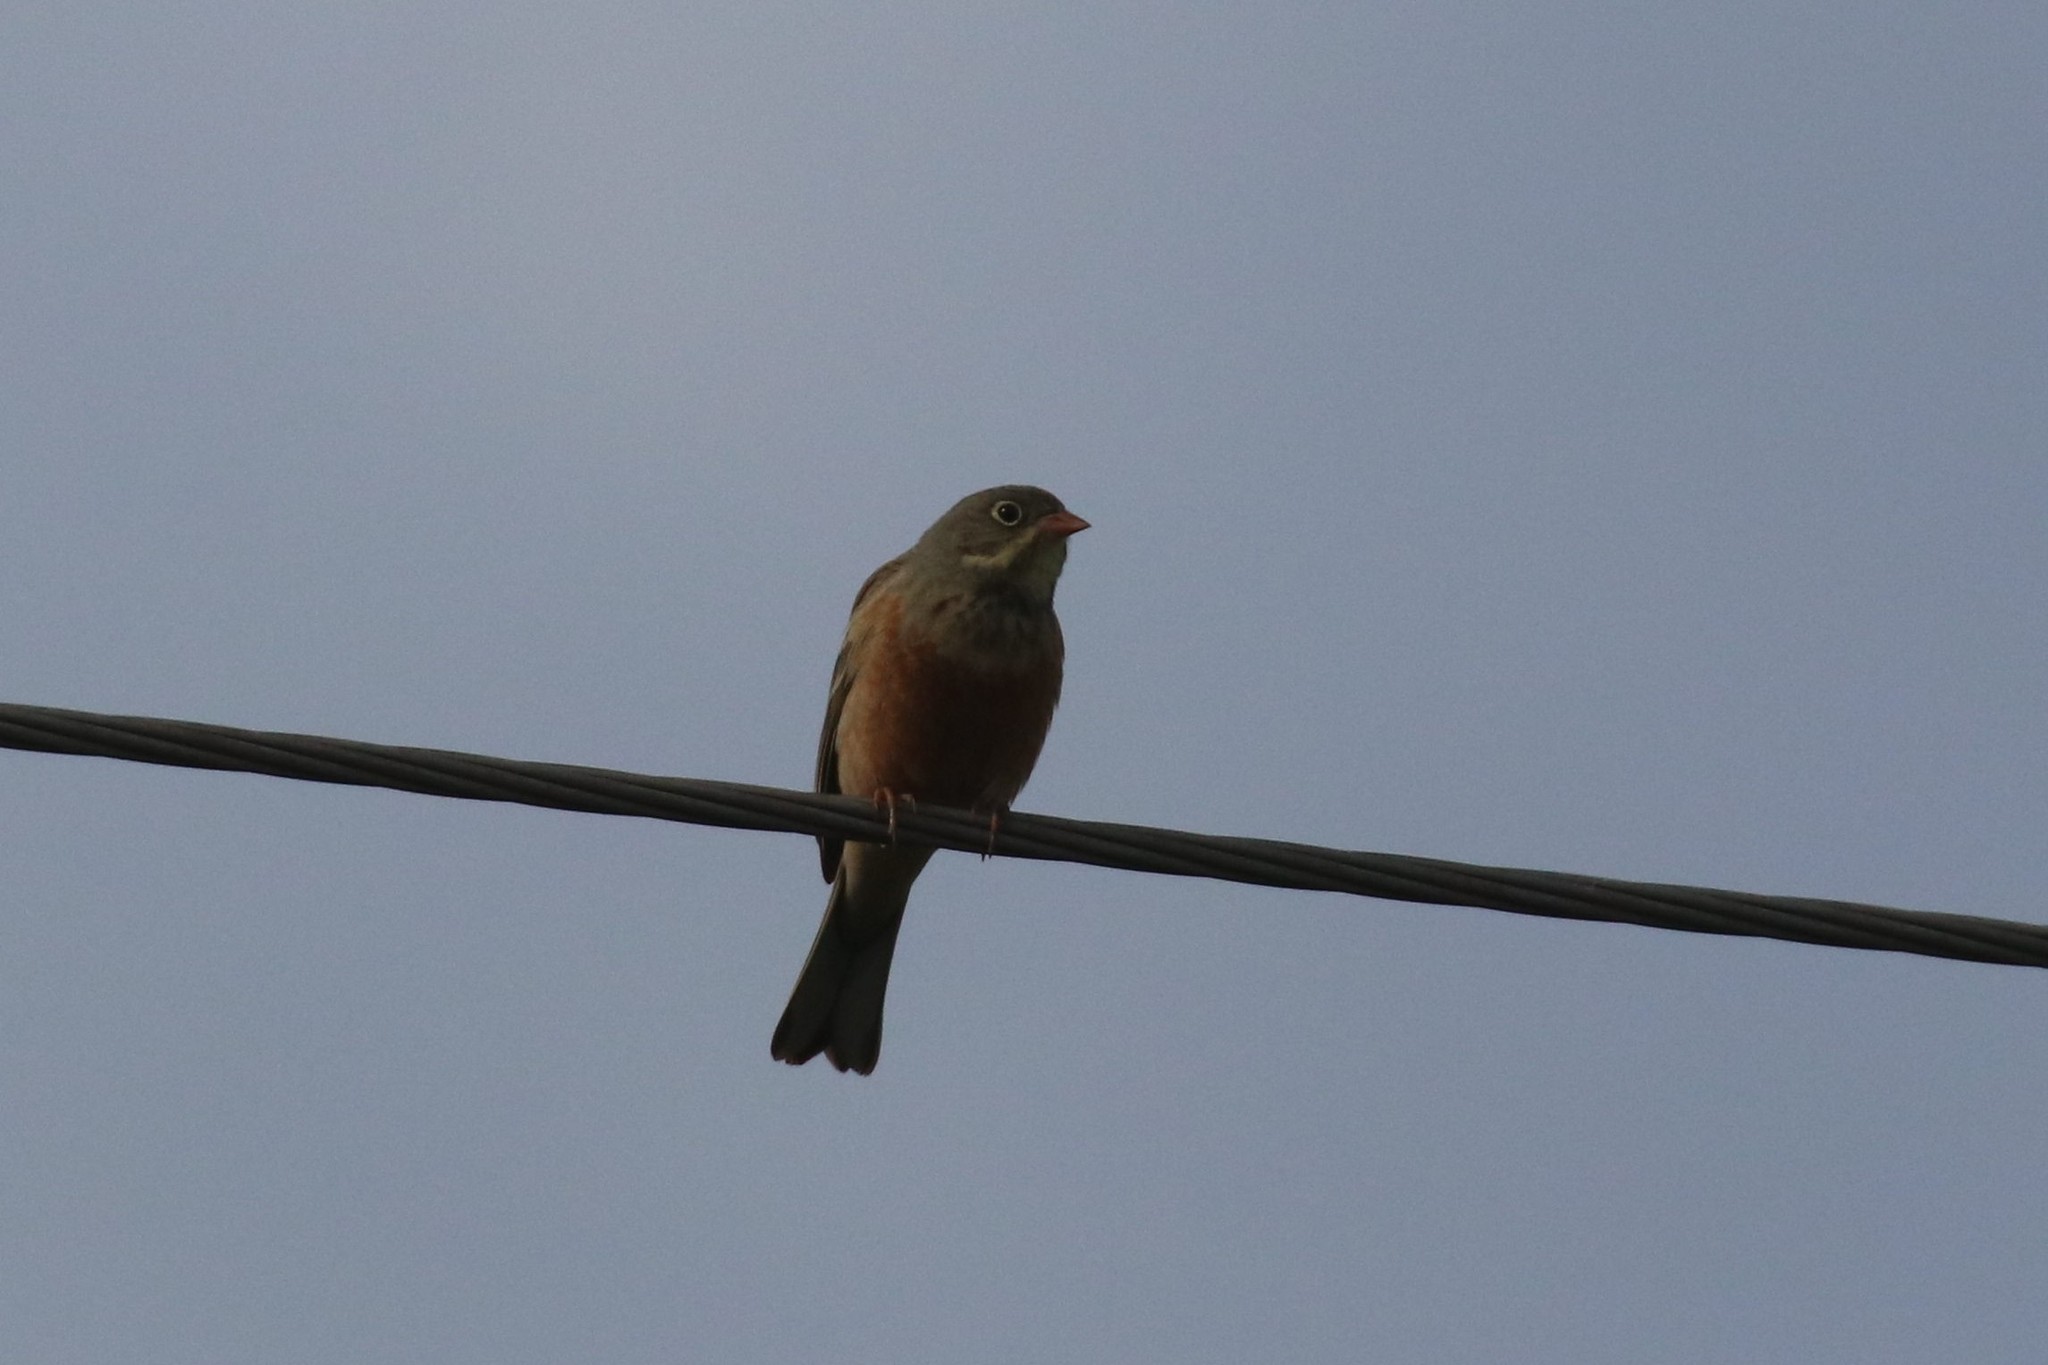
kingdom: Animalia
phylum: Chordata
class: Aves
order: Passeriformes
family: Emberizidae
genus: Emberiza
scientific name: Emberiza hortulana
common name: Ortolan bunting
